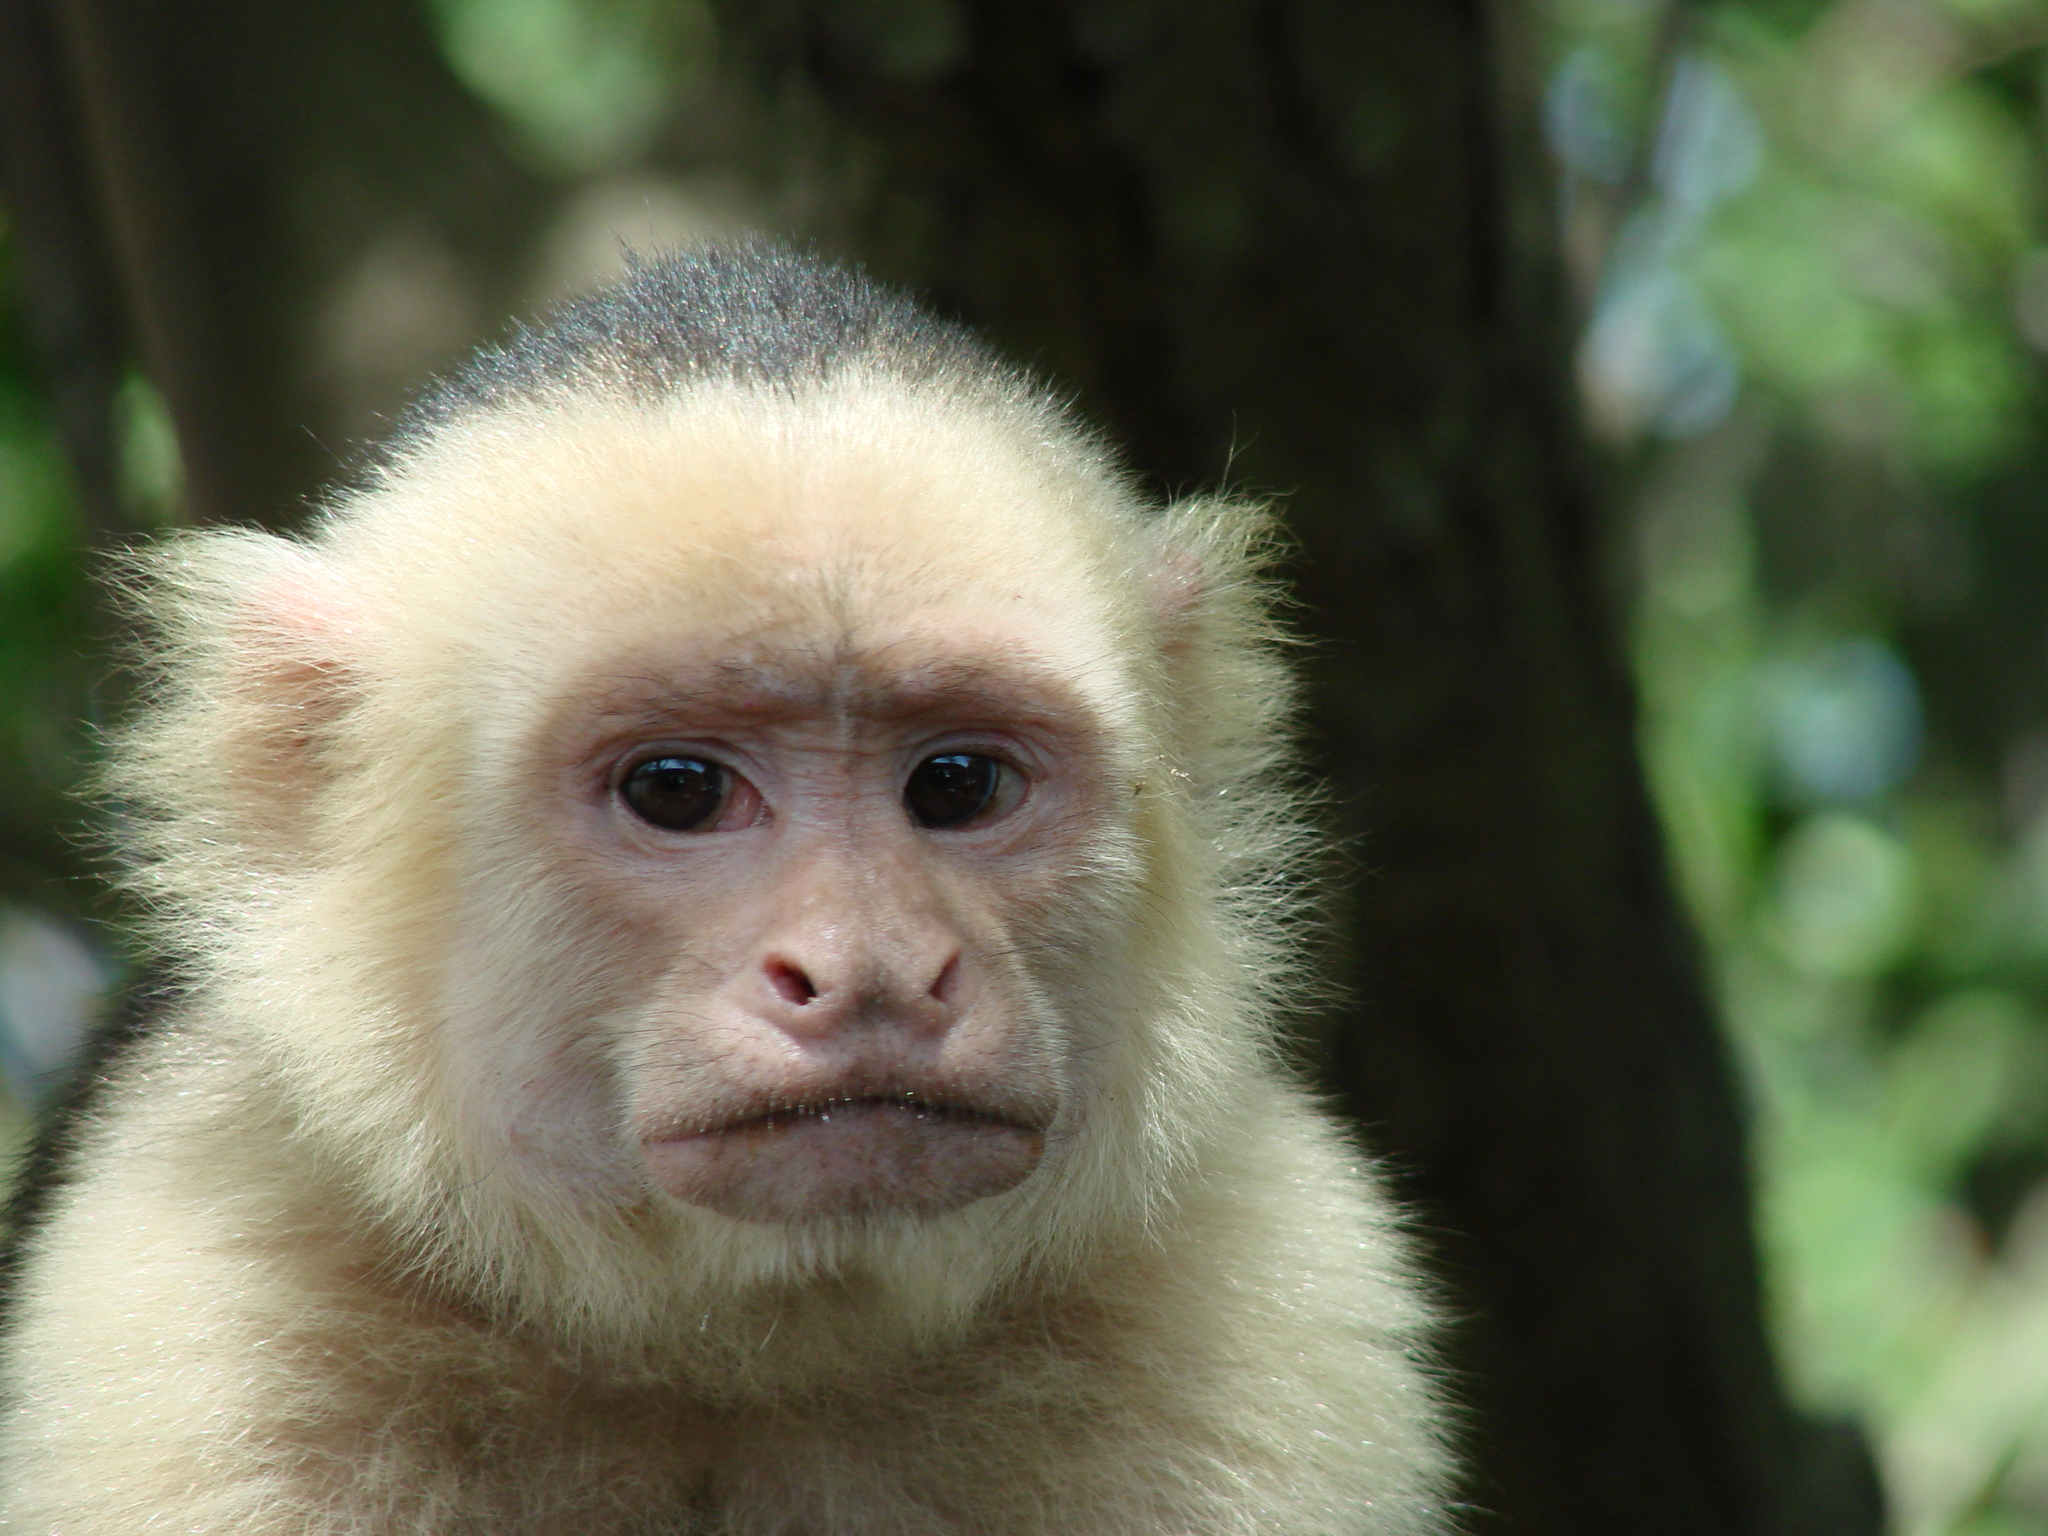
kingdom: Animalia
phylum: Chordata
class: Mammalia
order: Primates
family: Cebidae
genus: Cebus
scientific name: Cebus imitator
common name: Panamanian white-faced capuchin
